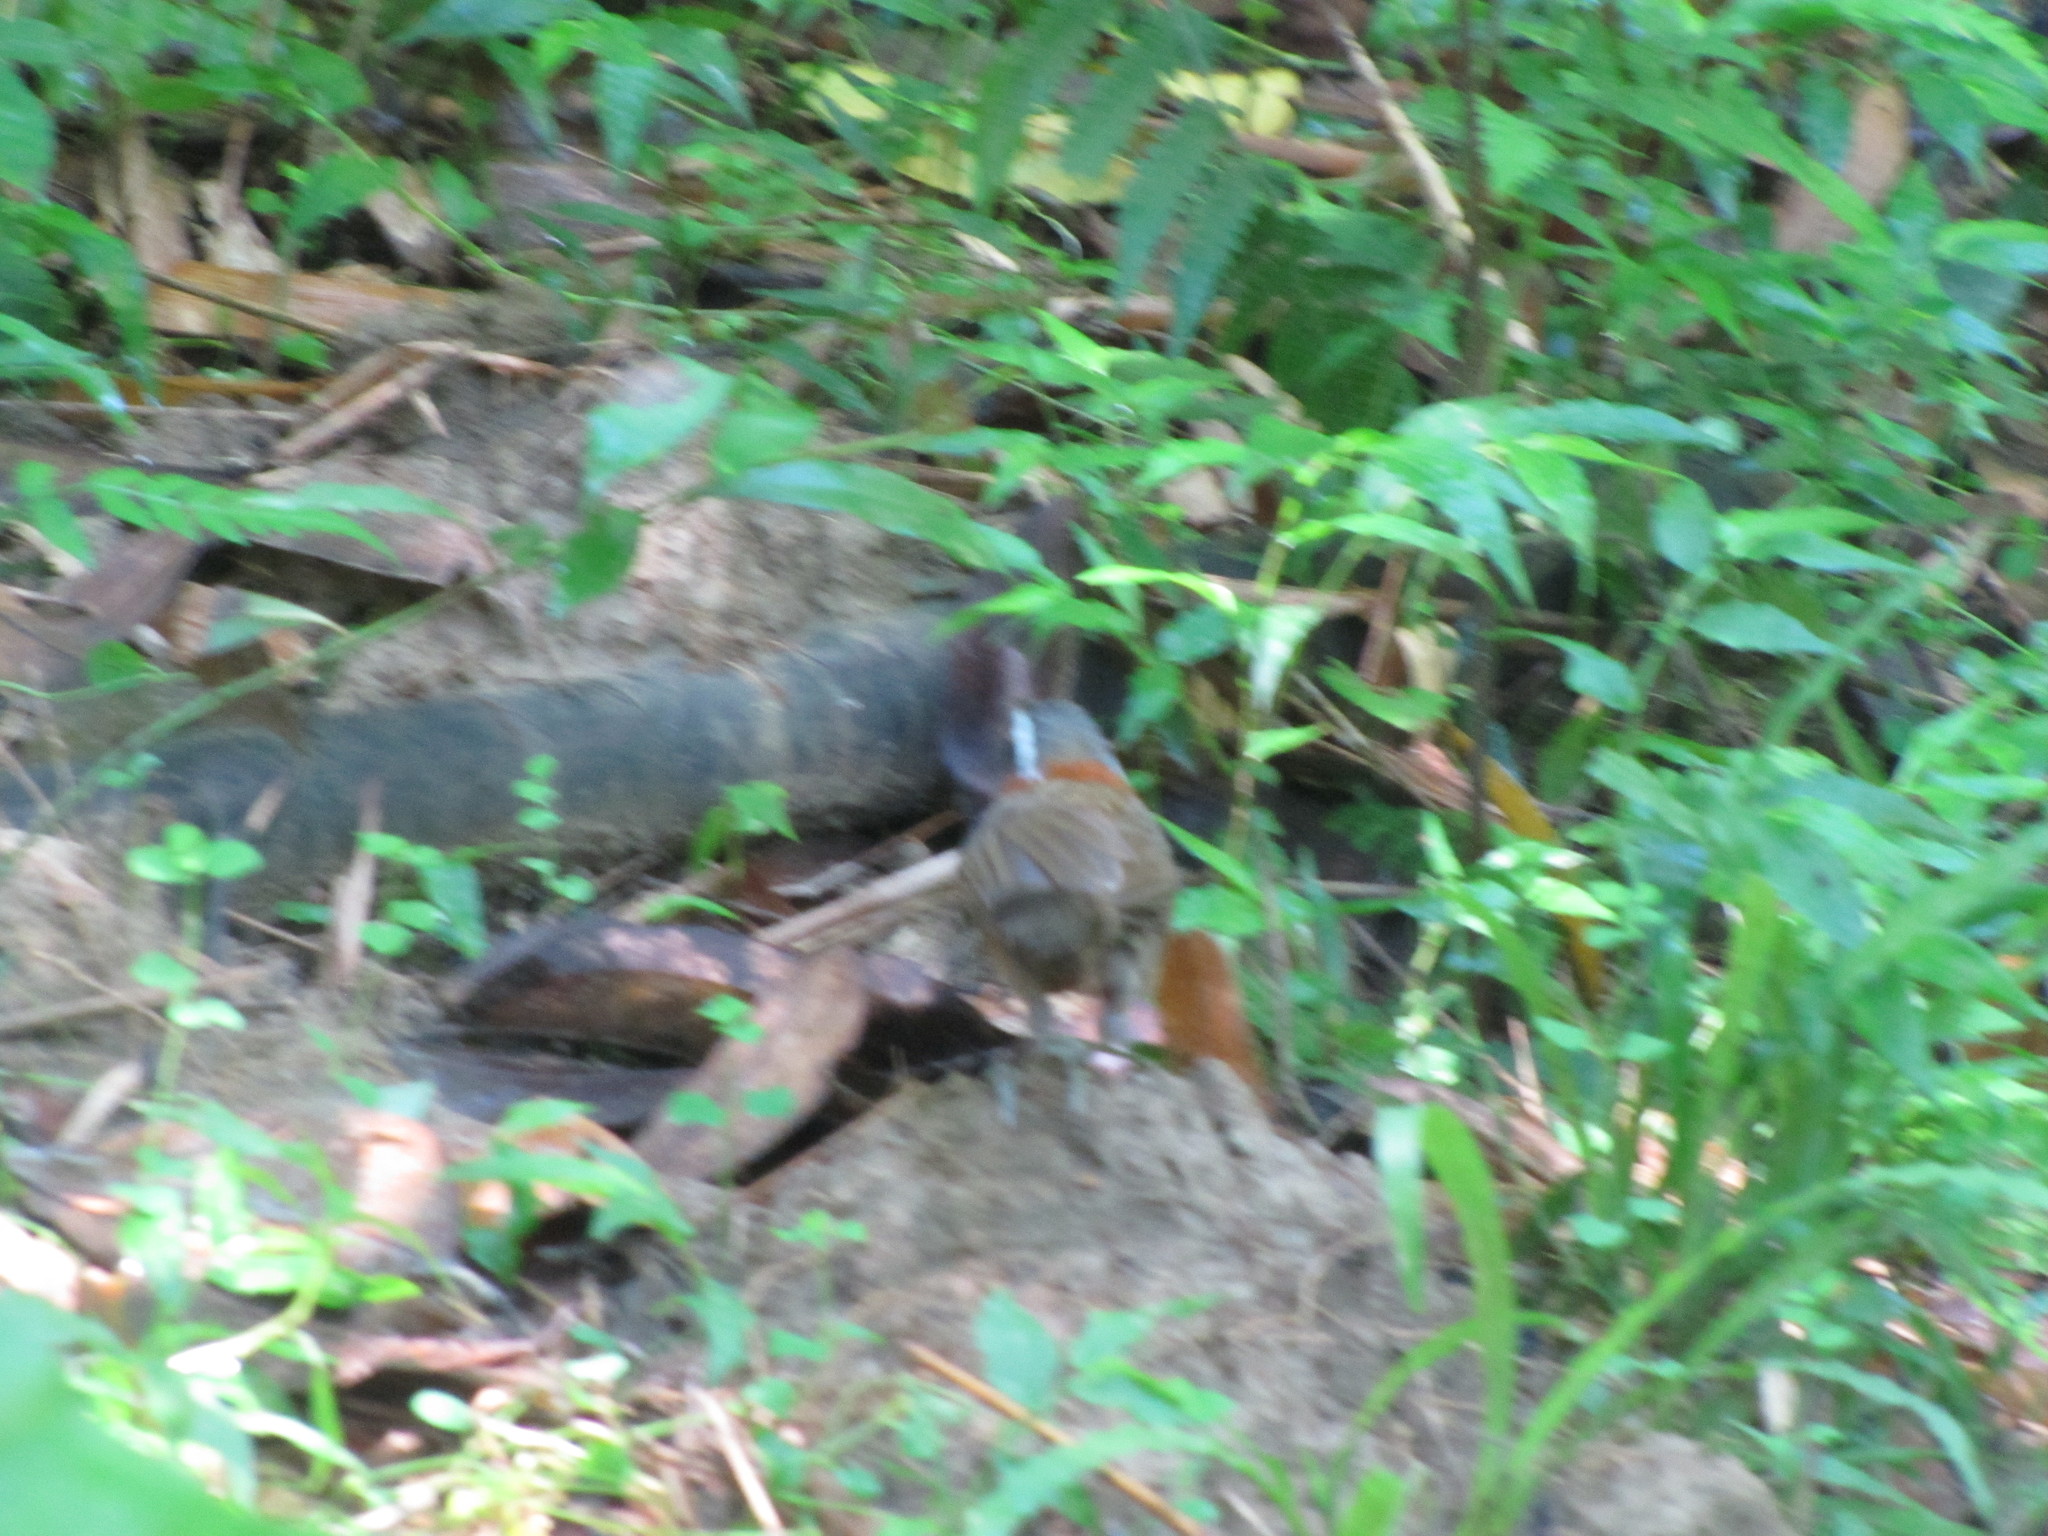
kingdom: Animalia
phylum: Chordata
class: Aves
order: Passeriformes
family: Timaliidae
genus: Pomatorhinus
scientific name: Pomatorhinus musicus
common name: Taiwan scimitar-babbler
